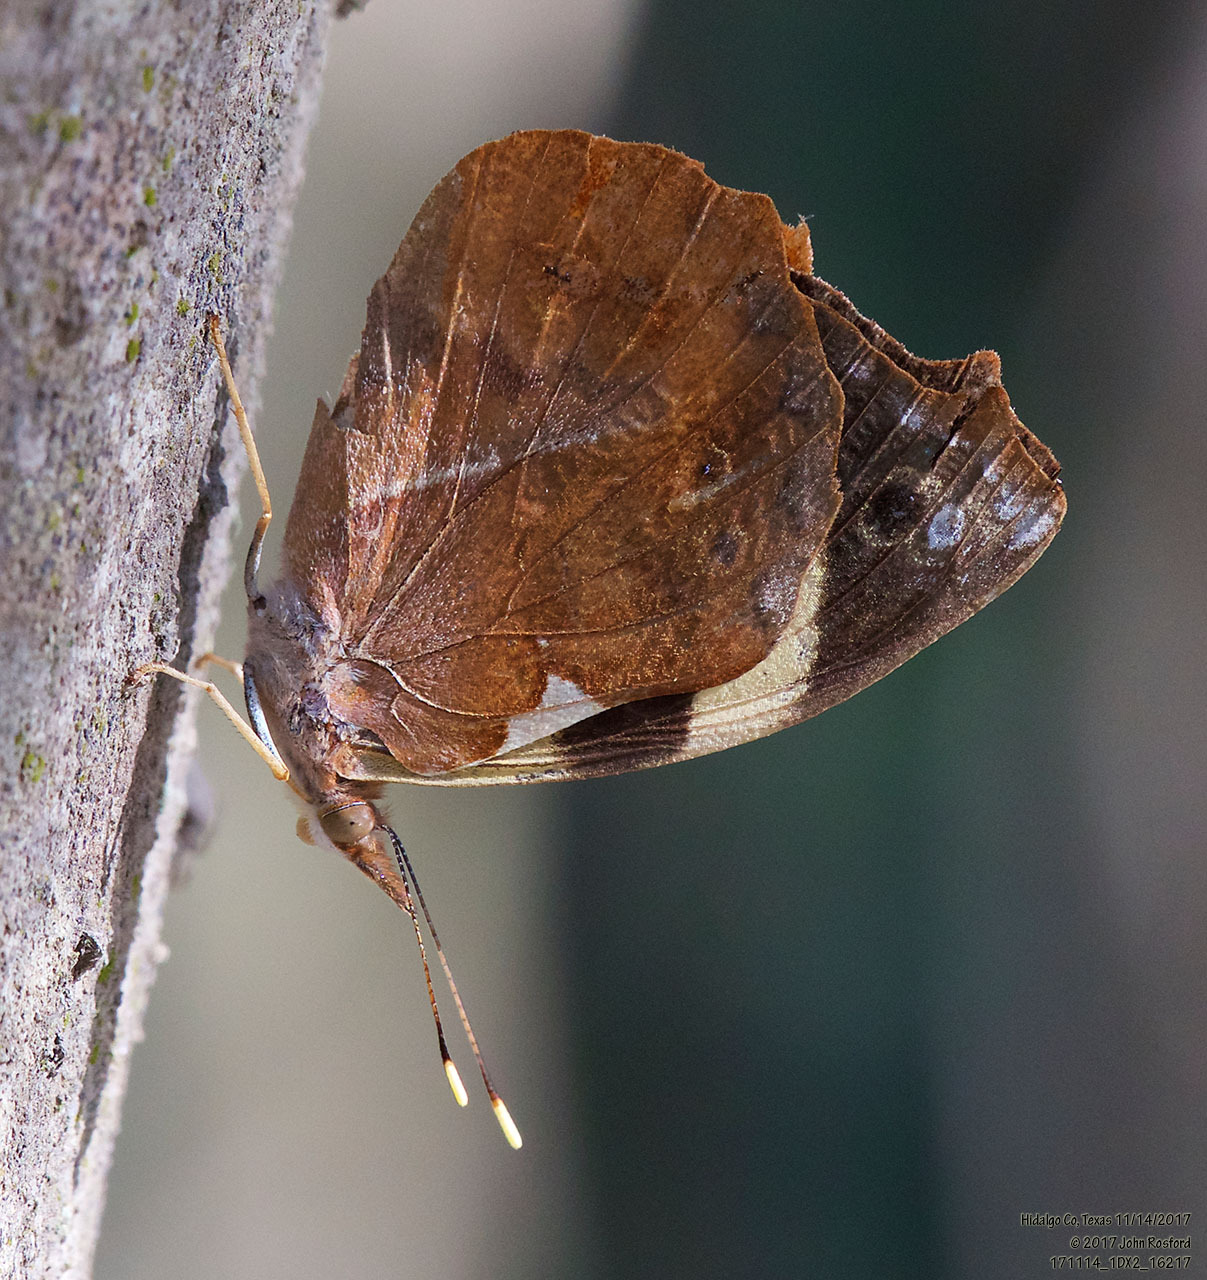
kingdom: Animalia
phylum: Arthropoda
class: Insecta
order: Lepidoptera
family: Nymphalidae
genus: Epiphile
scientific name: Epiphile adrasta
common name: Common banner
